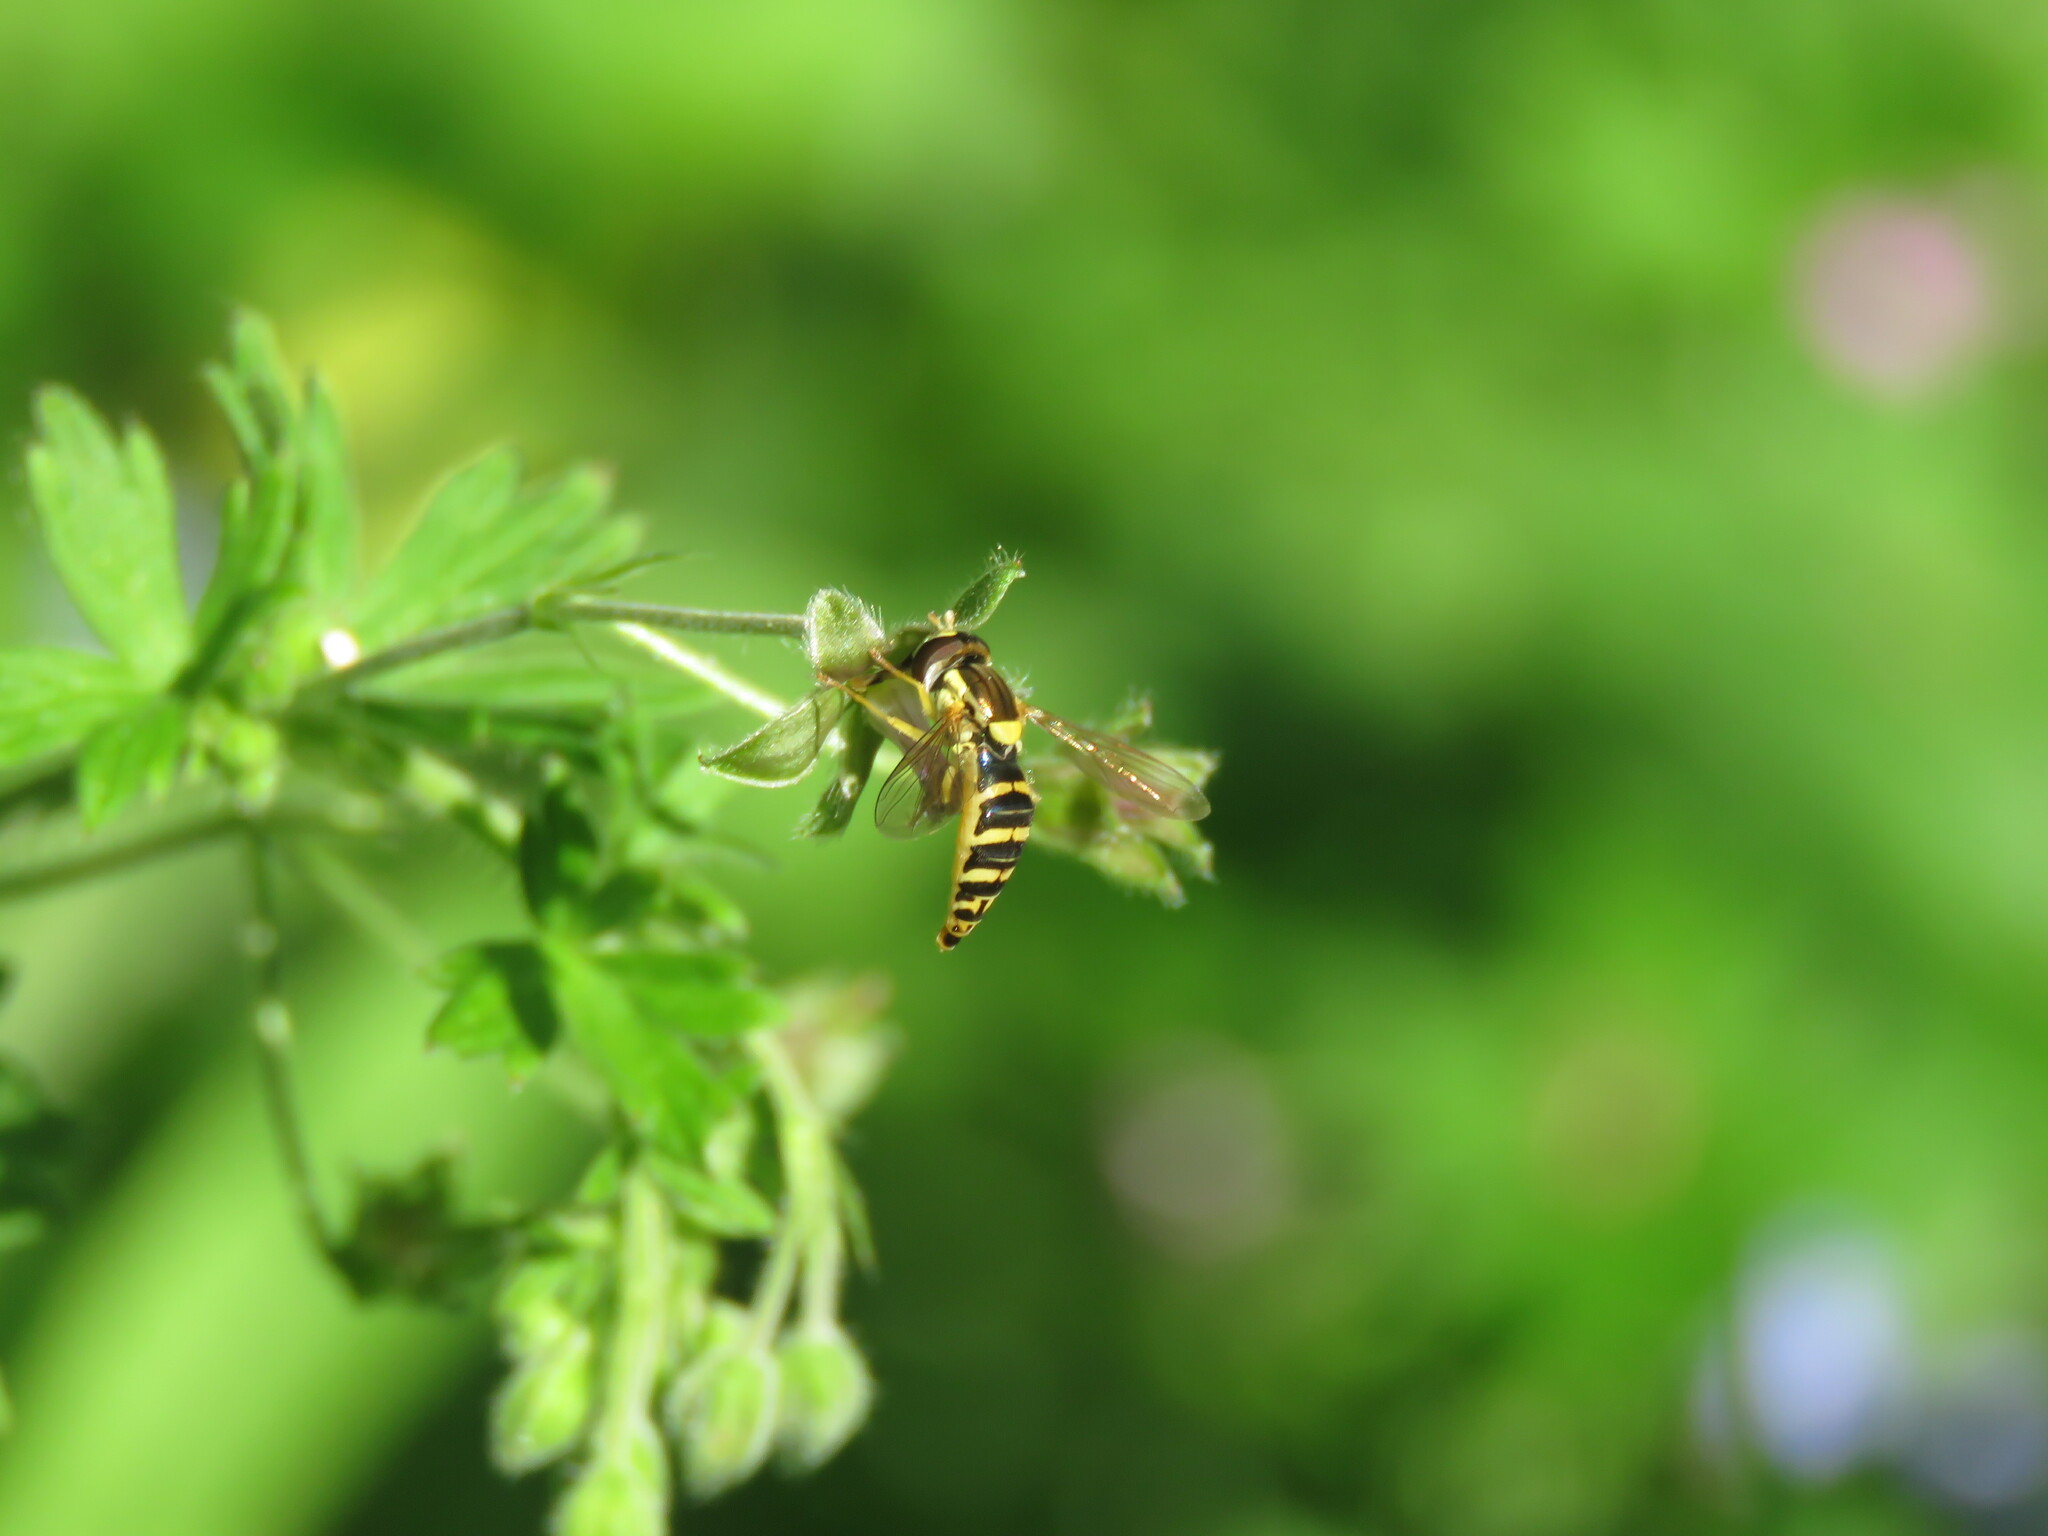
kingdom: Animalia
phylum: Arthropoda
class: Insecta
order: Diptera
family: Syrphidae
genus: Sphaerophoria
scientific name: Sphaerophoria
